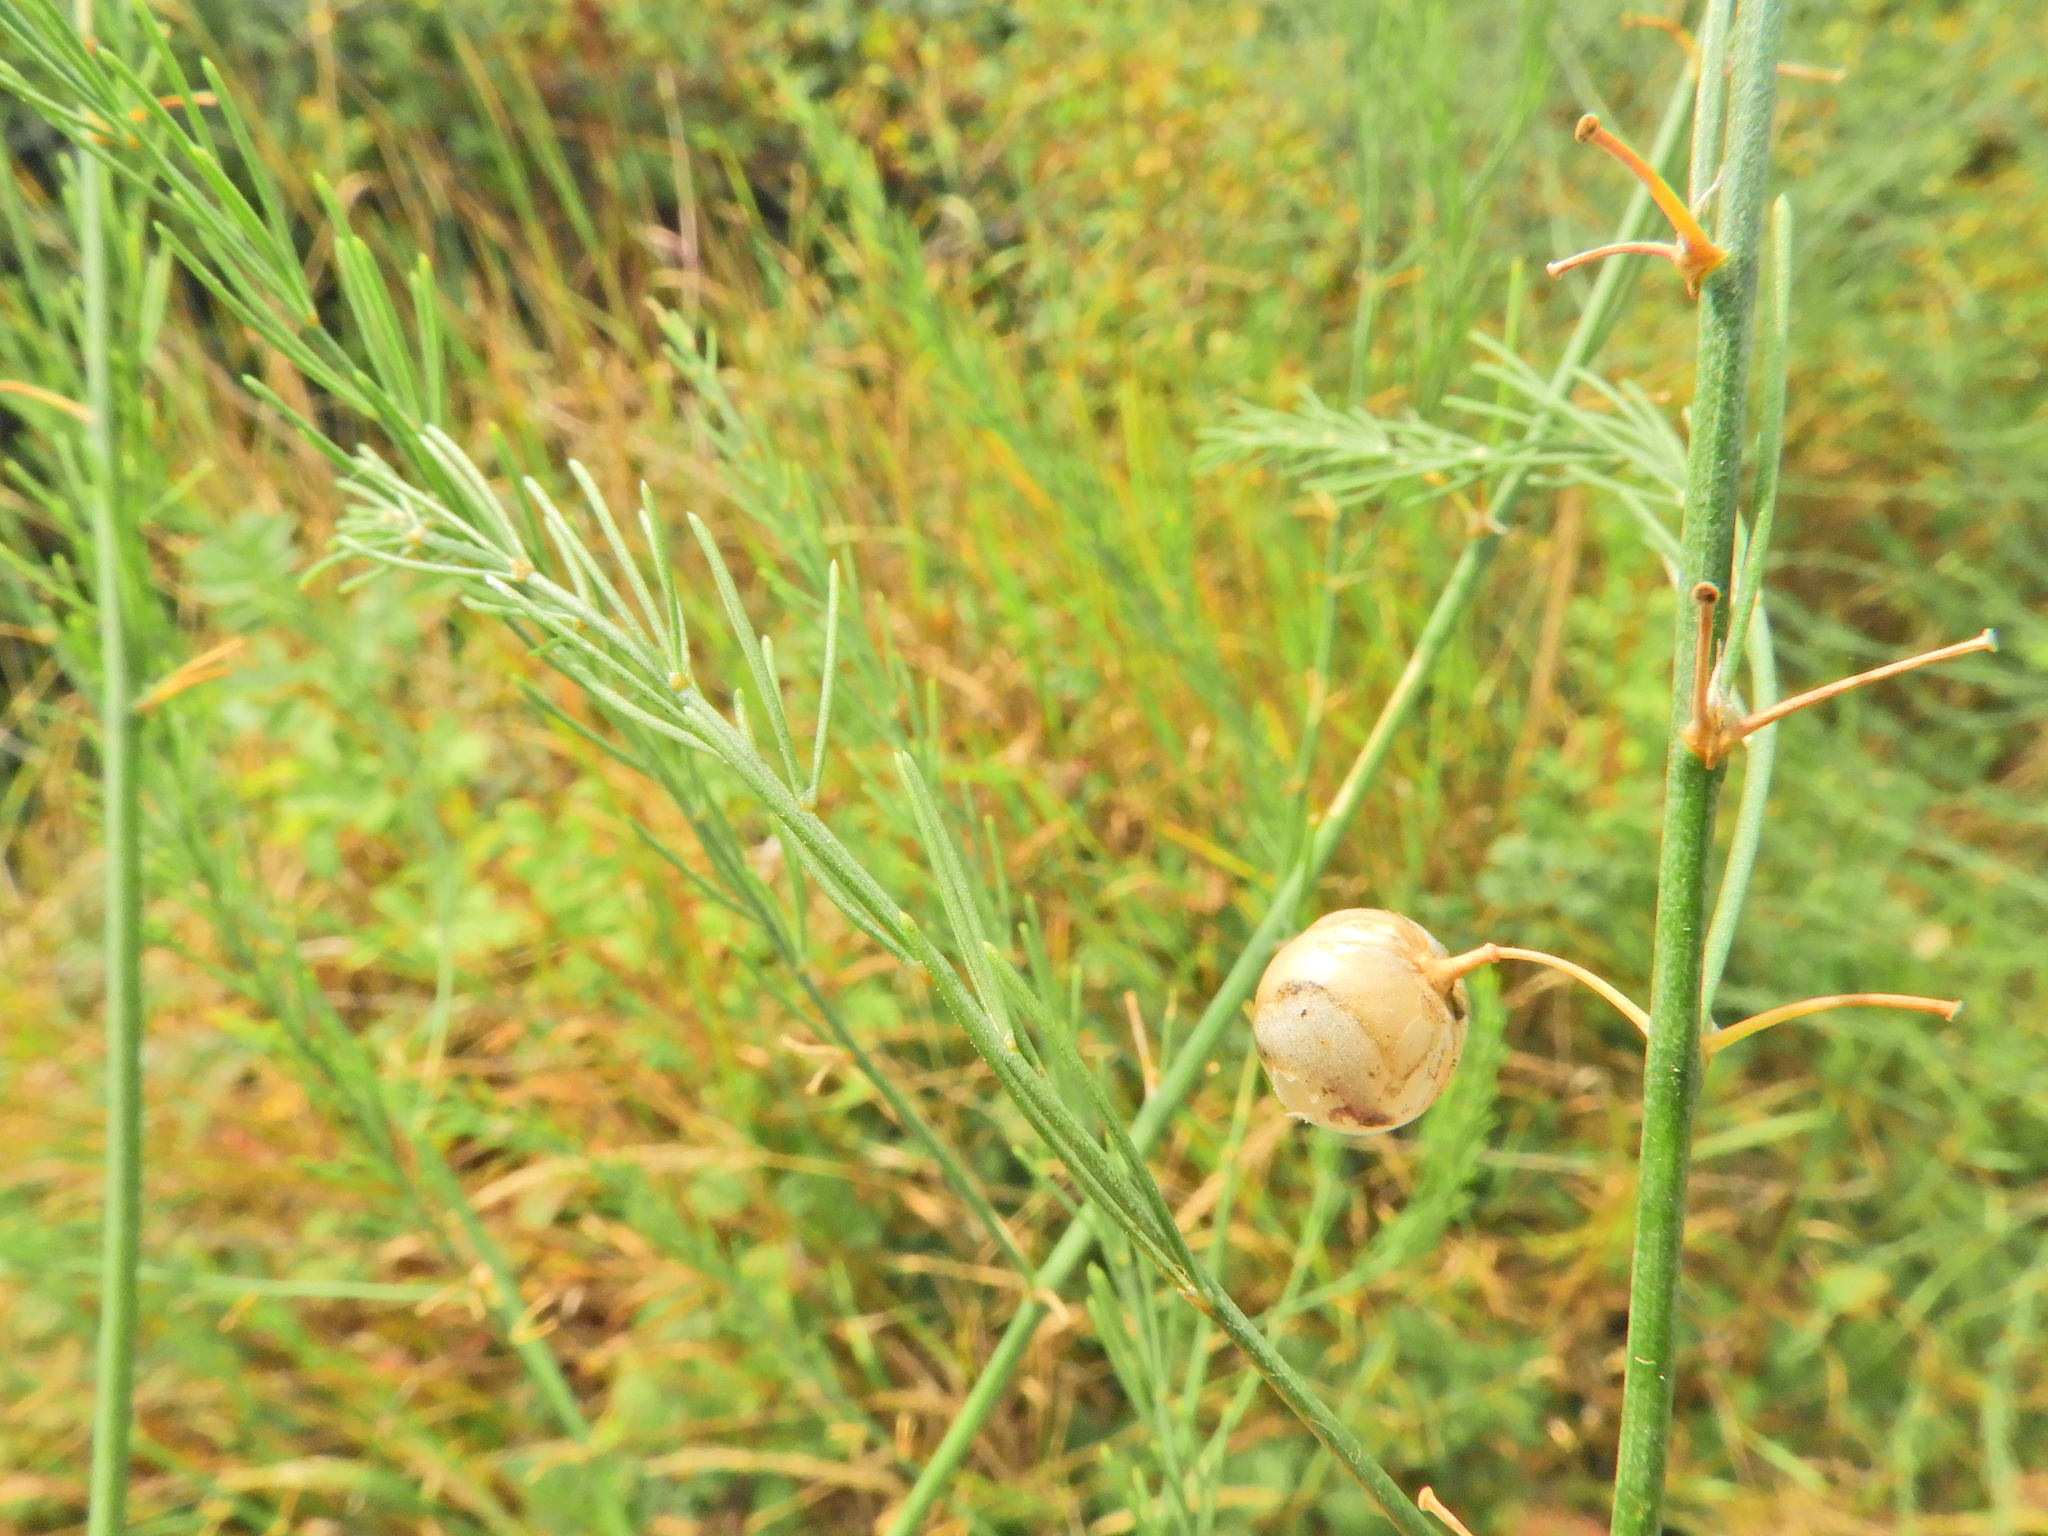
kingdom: Plantae
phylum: Tracheophyta
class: Liliopsida
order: Asparagales
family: Asparagaceae
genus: Asparagus
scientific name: Asparagus officinalis
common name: Garden asparagus
